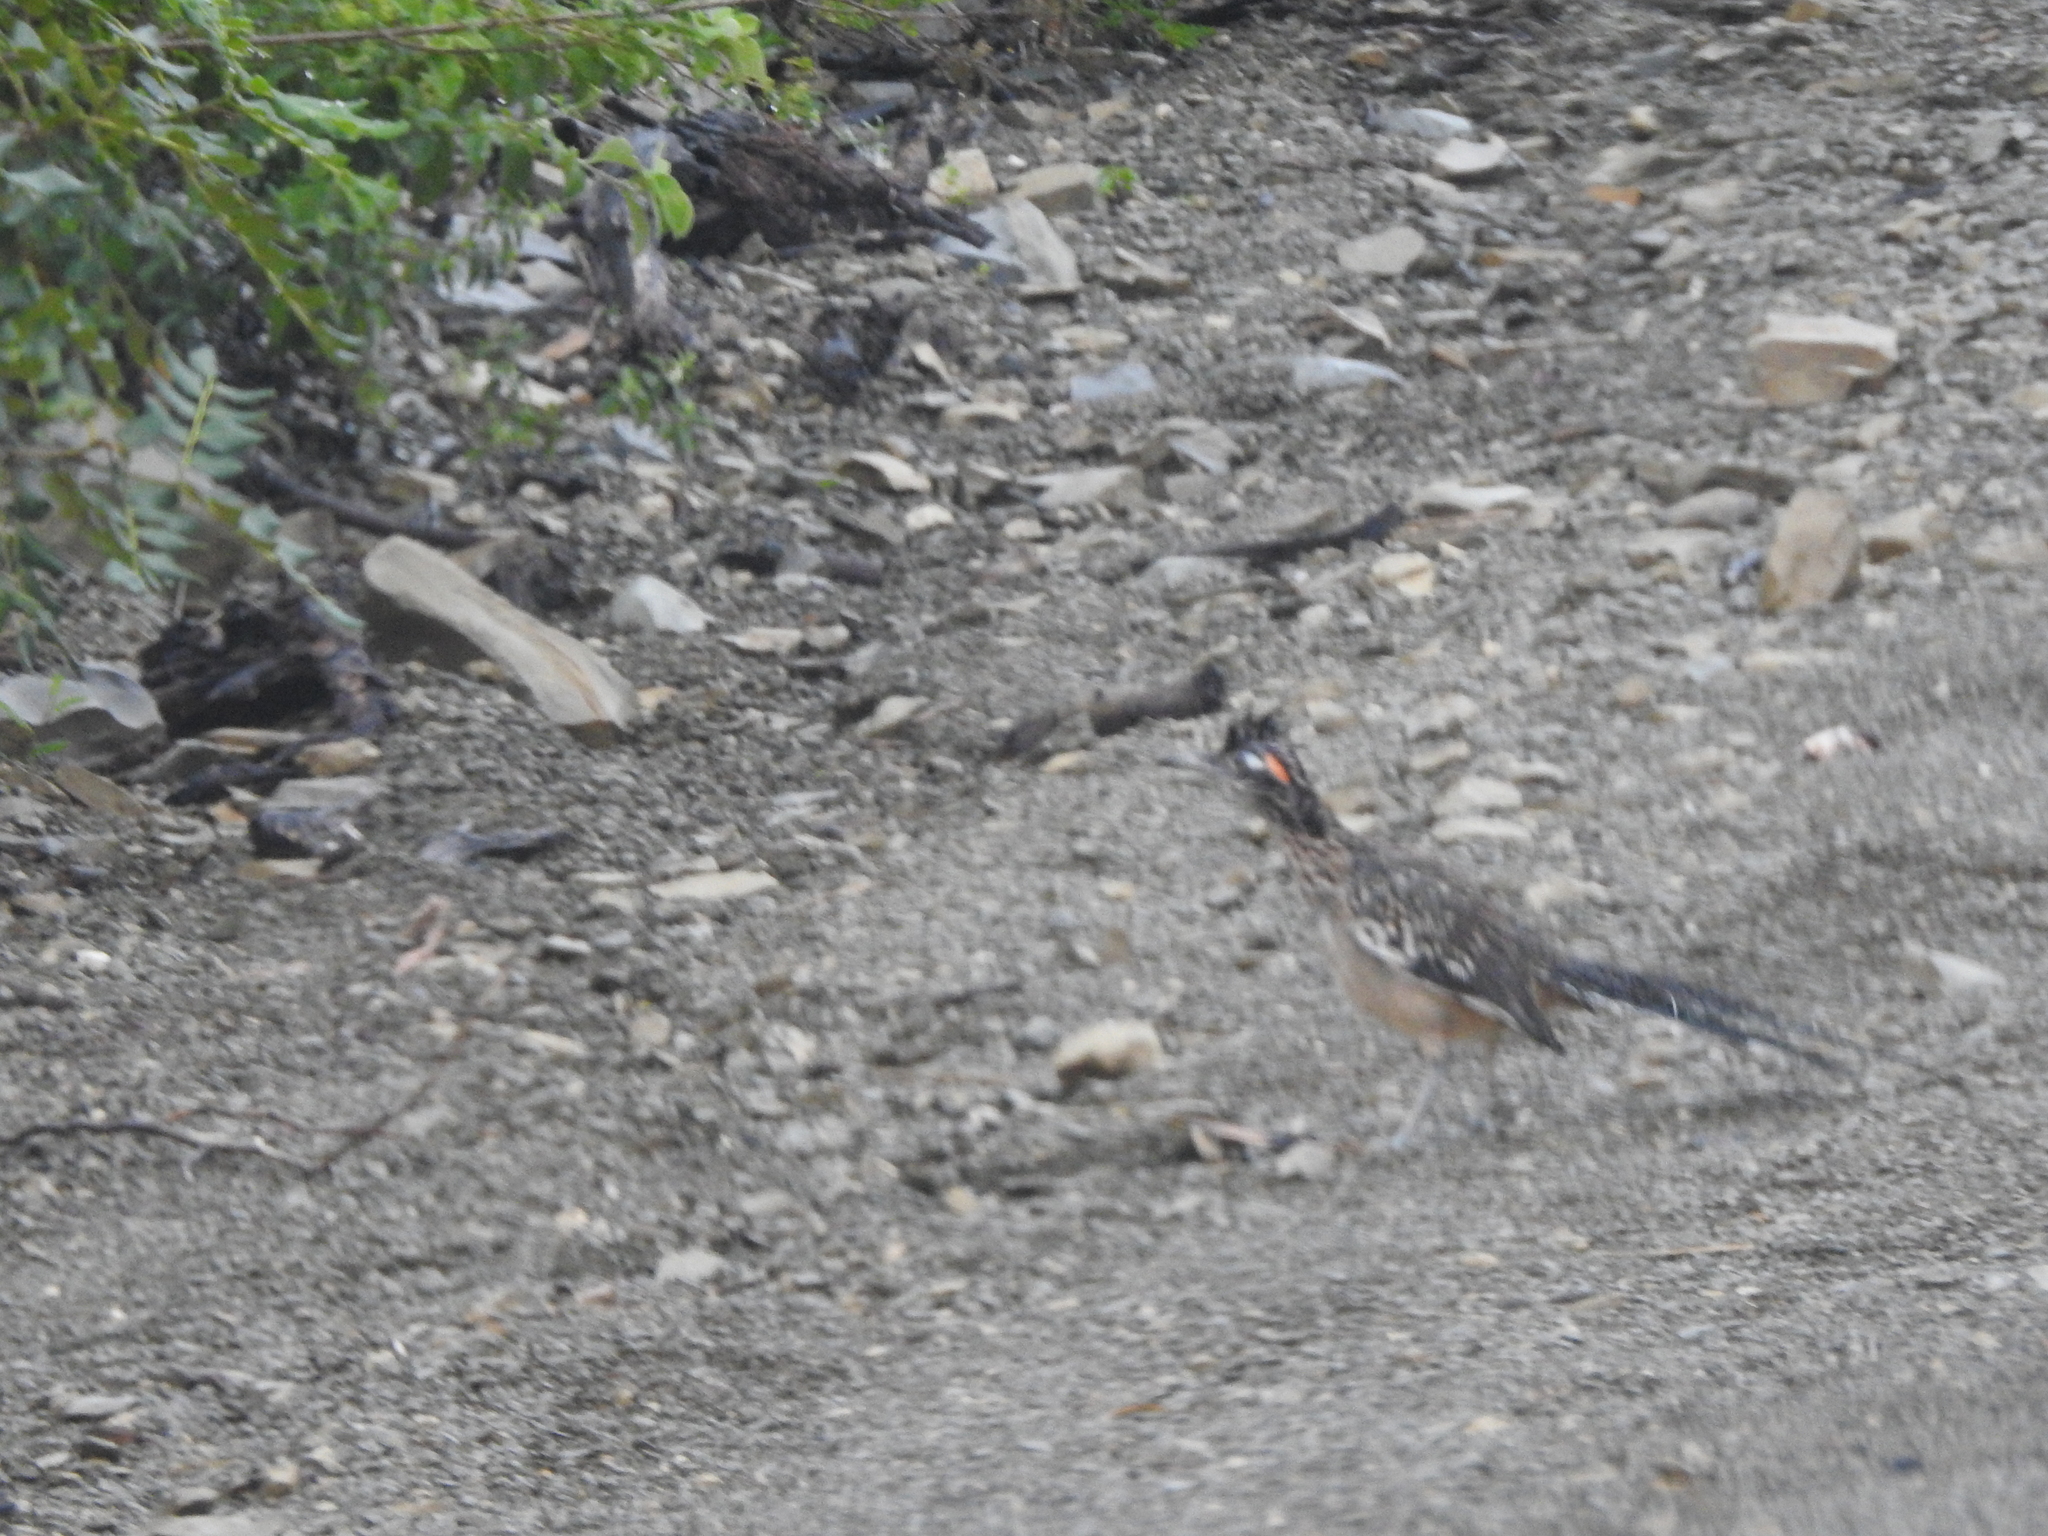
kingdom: Animalia
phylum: Chordata
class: Aves
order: Cuculiformes
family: Cuculidae
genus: Geococcyx
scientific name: Geococcyx californianus
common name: Greater roadrunner
